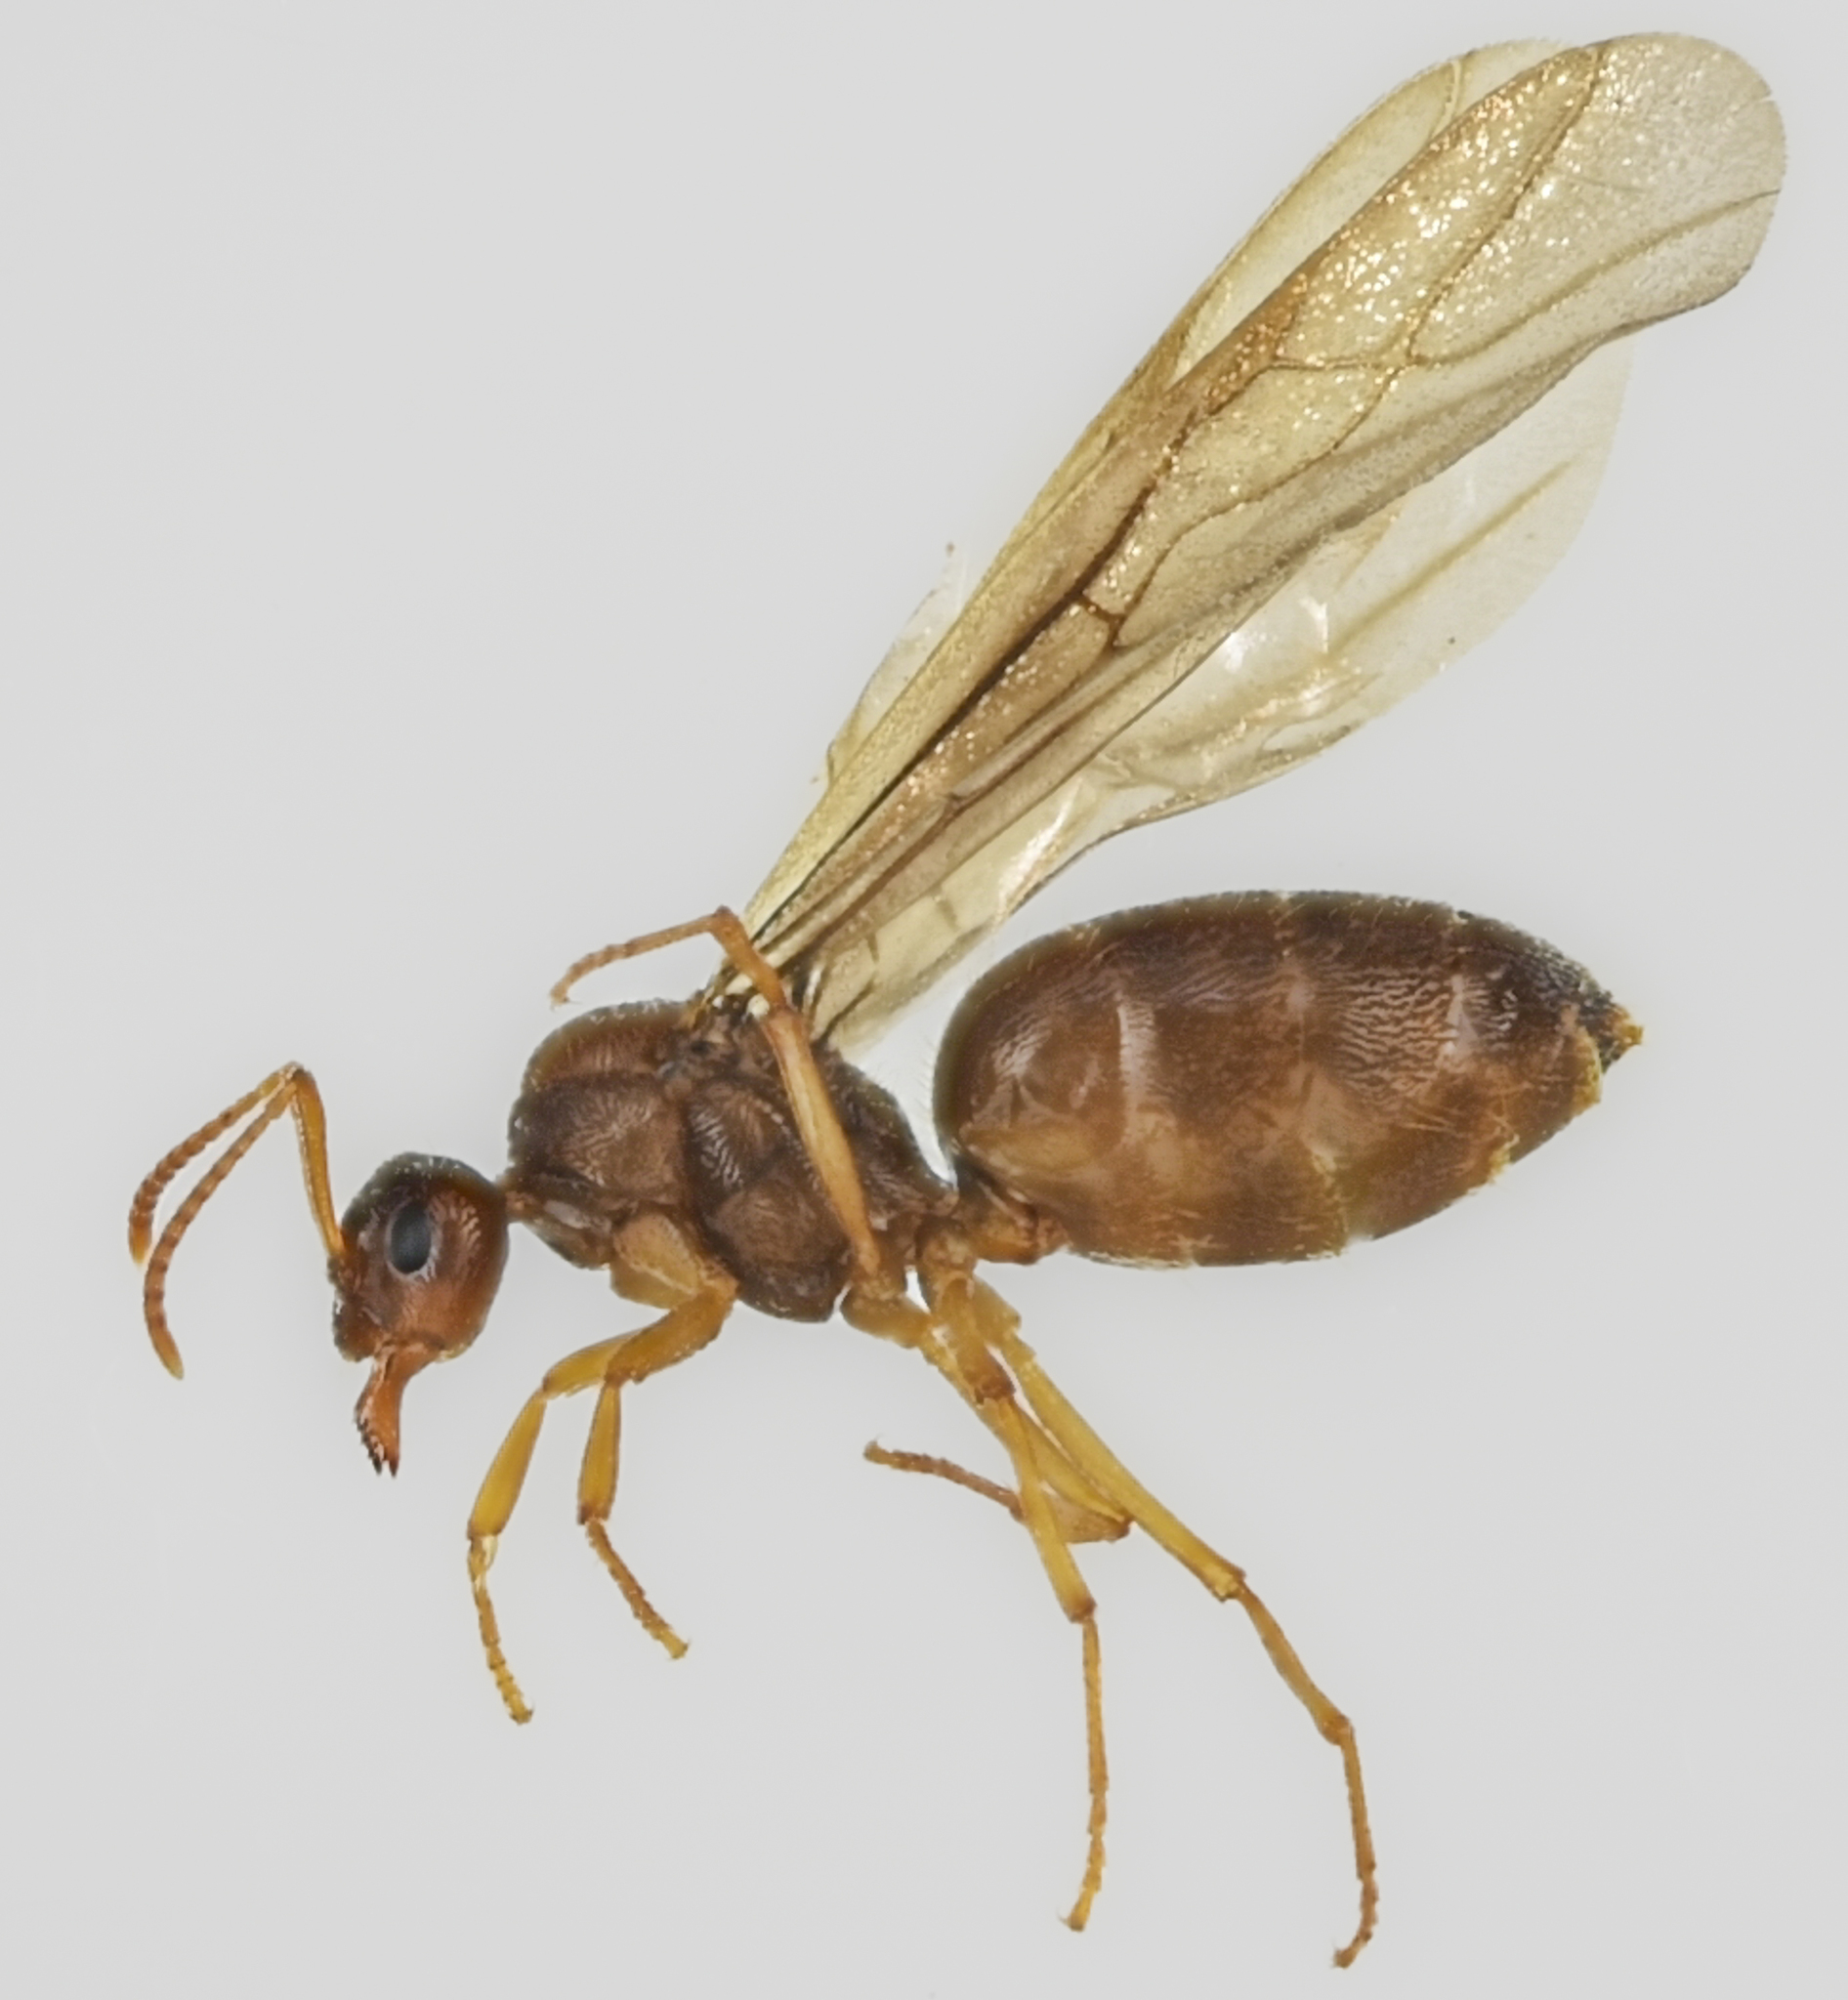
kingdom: Animalia
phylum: Arthropoda
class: Insecta
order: Hymenoptera
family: Formicidae
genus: Prenolepis
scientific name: Prenolepis imparis
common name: Small honey ant
